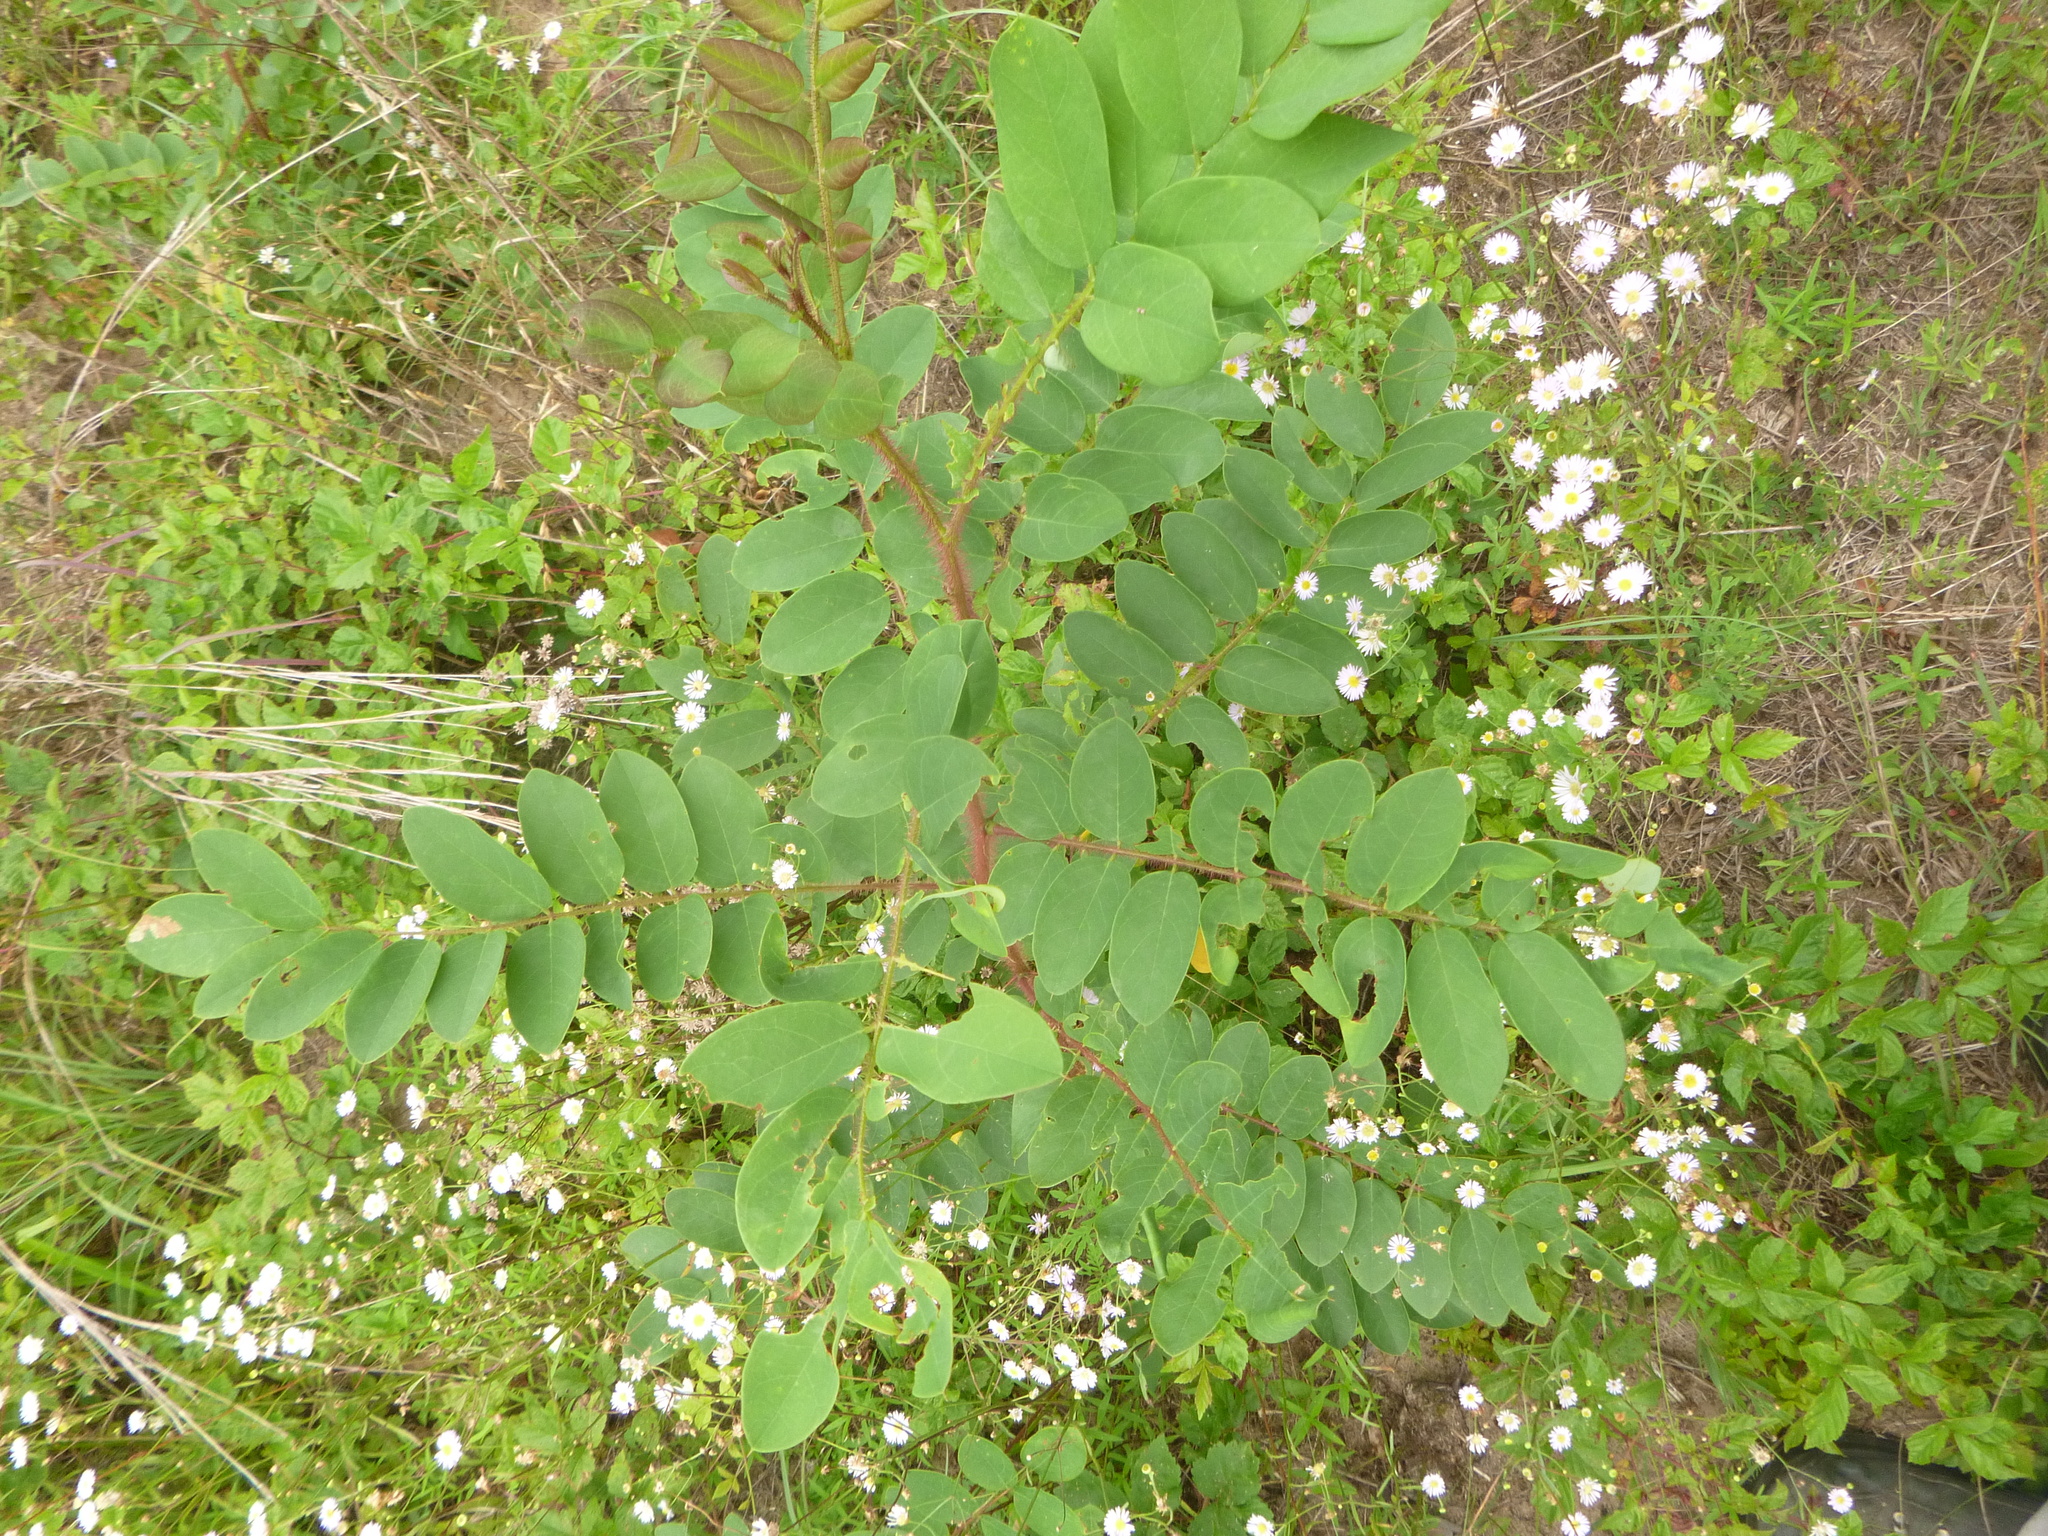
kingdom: Plantae
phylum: Tracheophyta
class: Magnoliopsida
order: Fabales
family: Fabaceae
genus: Robinia
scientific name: Robinia hispida
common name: Bristly locust
